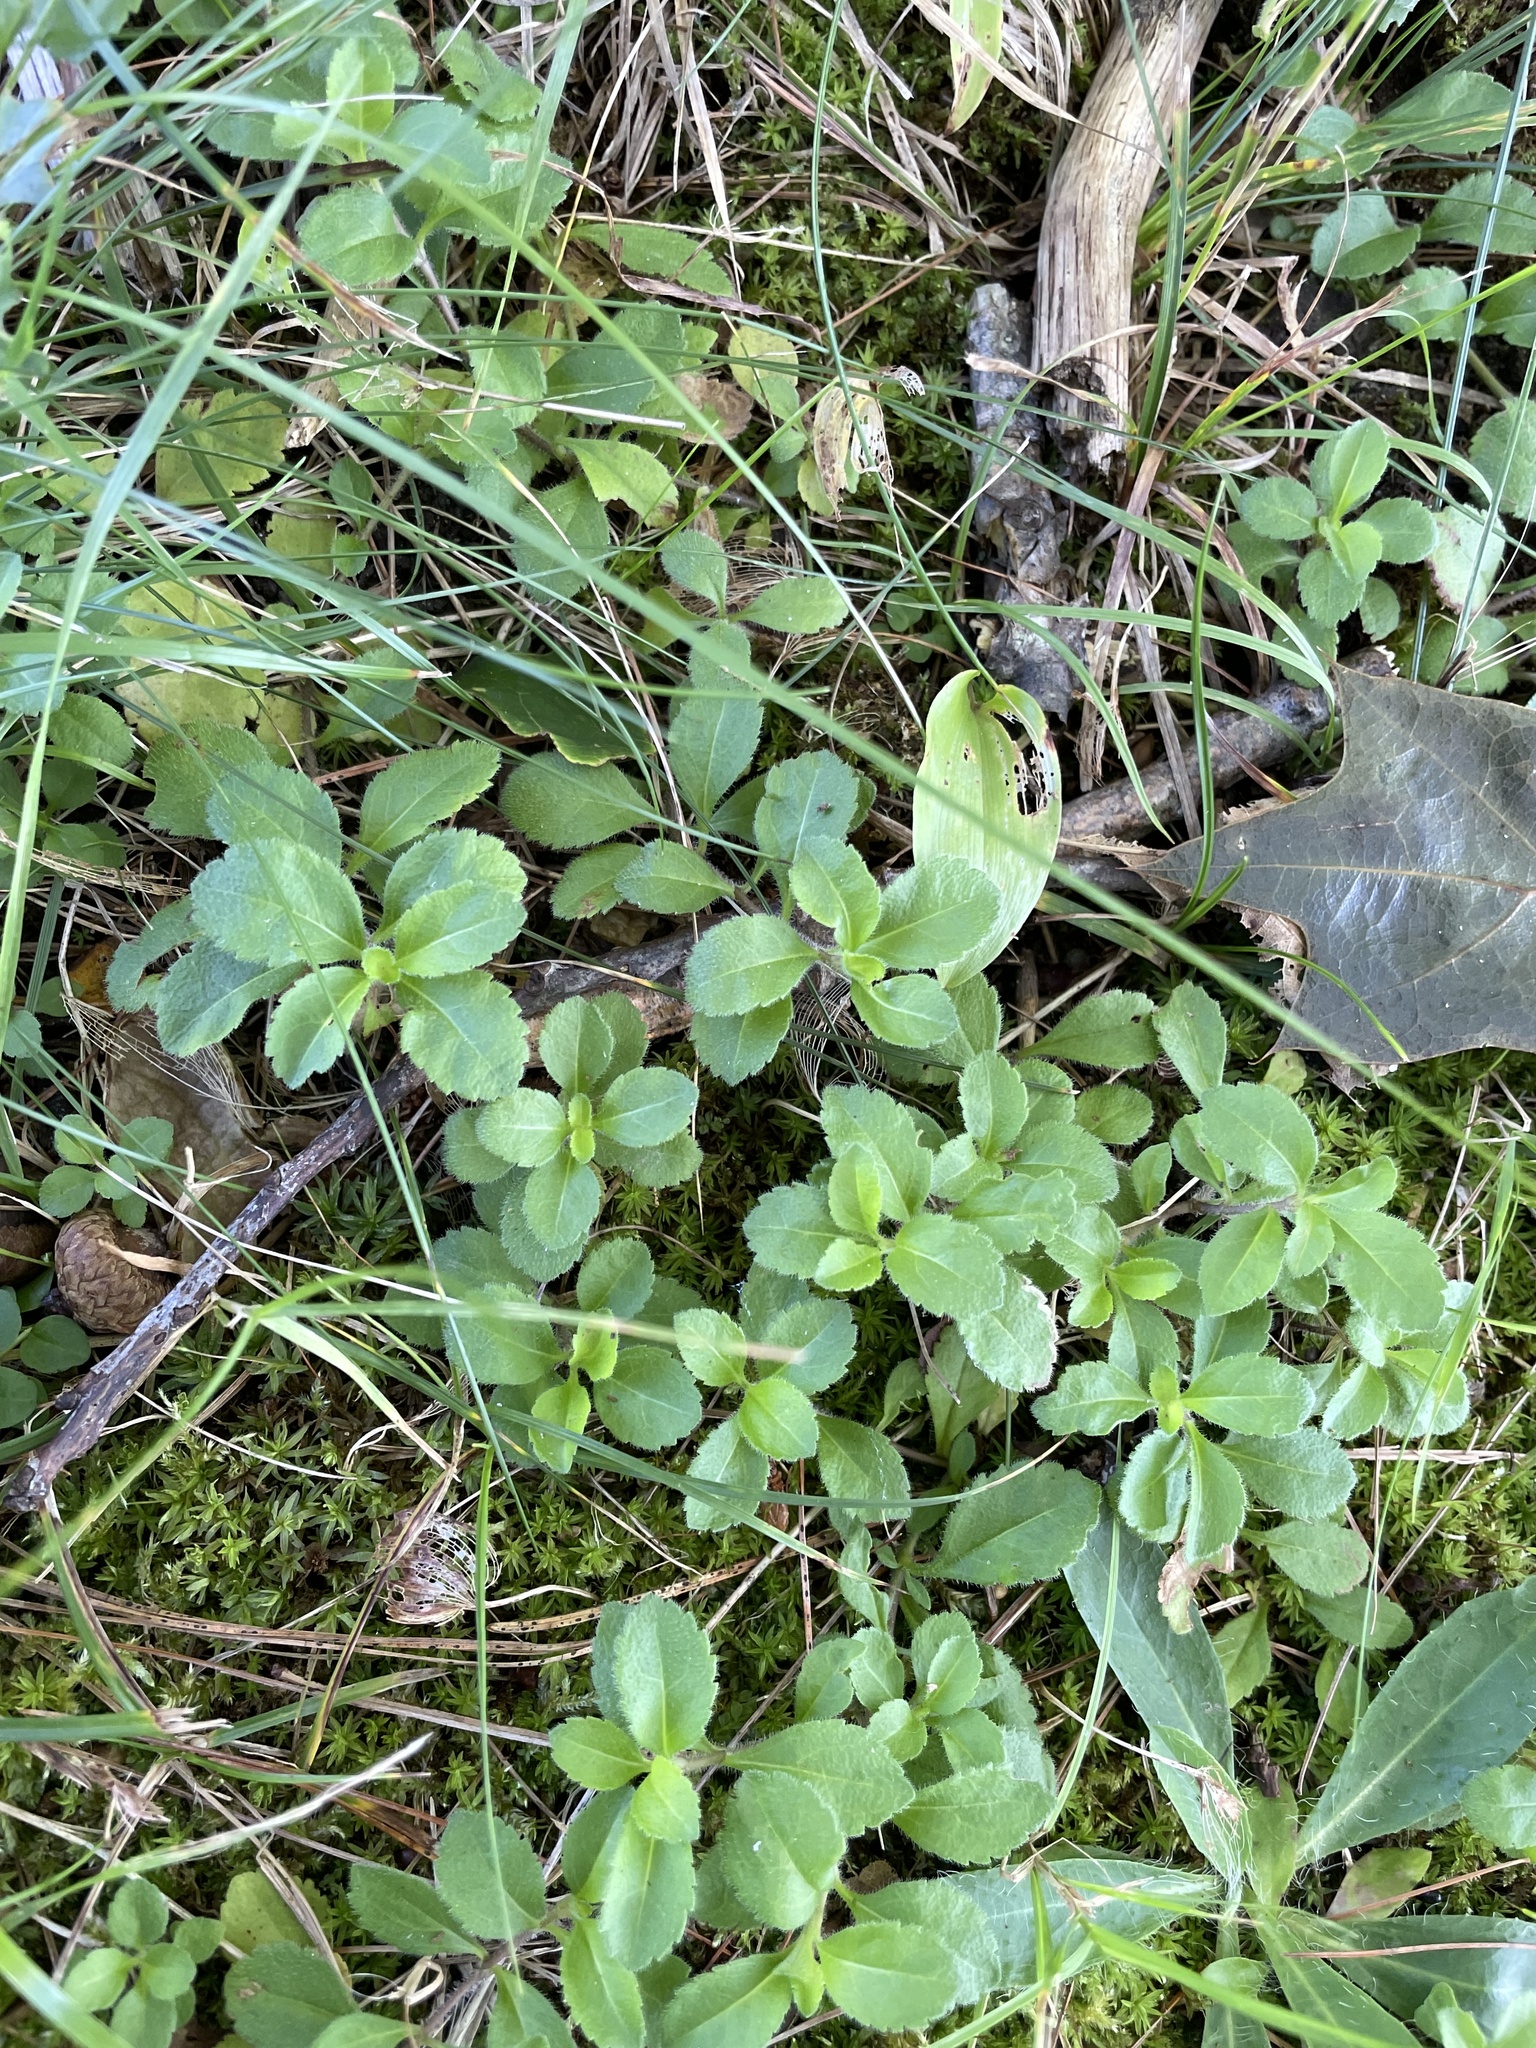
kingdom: Plantae
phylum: Tracheophyta
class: Magnoliopsida
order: Lamiales
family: Plantaginaceae
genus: Veronica
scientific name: Veronica officinalis
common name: Common speedwell
